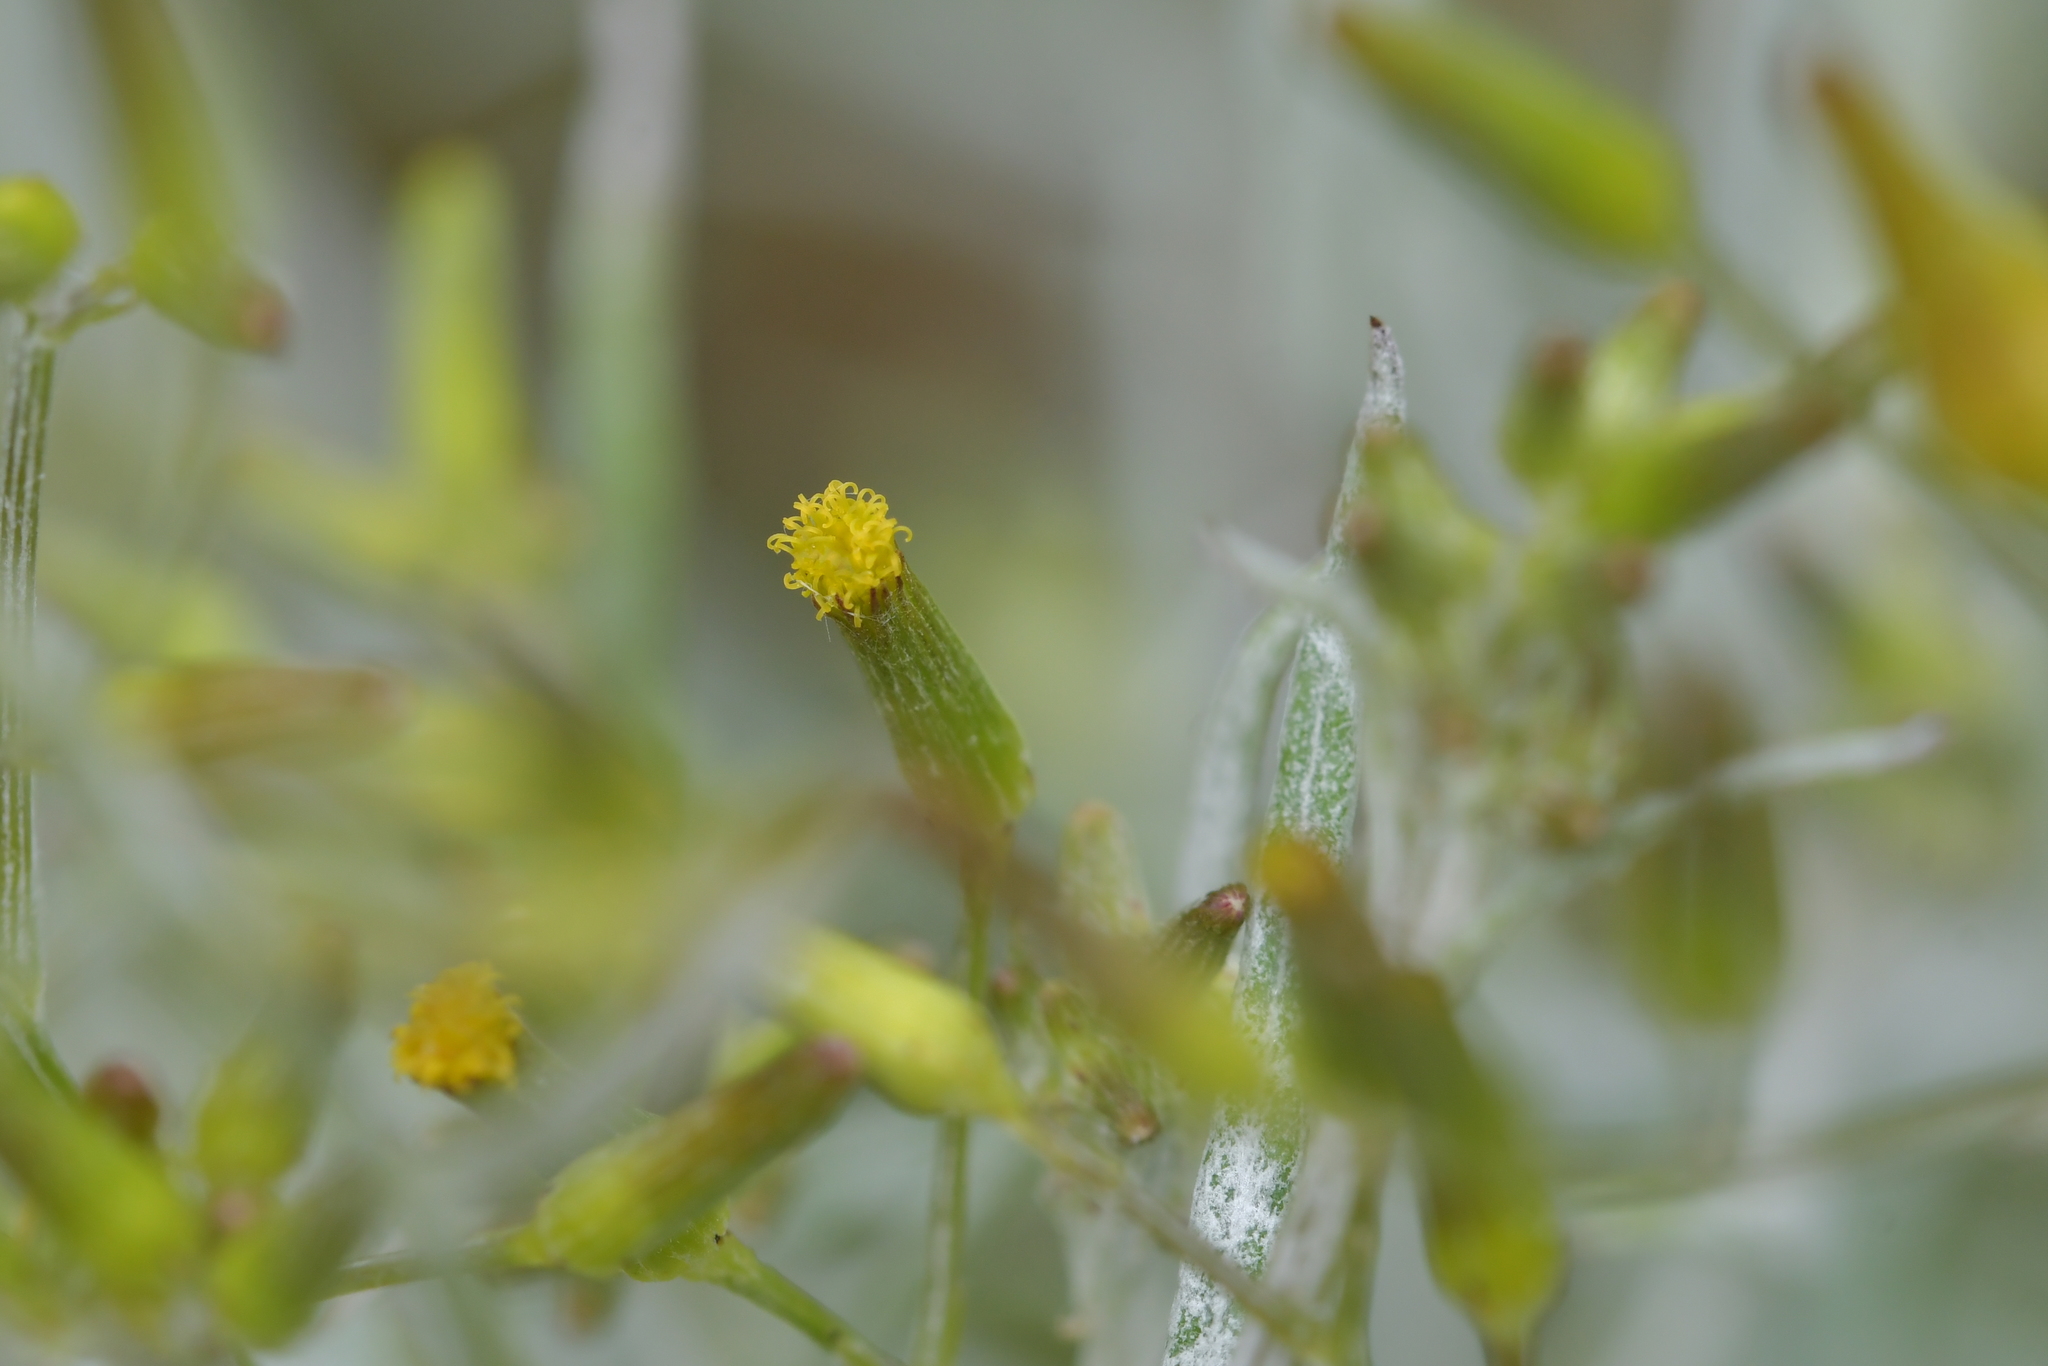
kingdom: Plantae
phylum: Tracheophyta
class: Magnoliopsida
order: Asterales
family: Asteraceae
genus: Senecio
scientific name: Senecio quadridentatus
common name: Cotton fireweed
